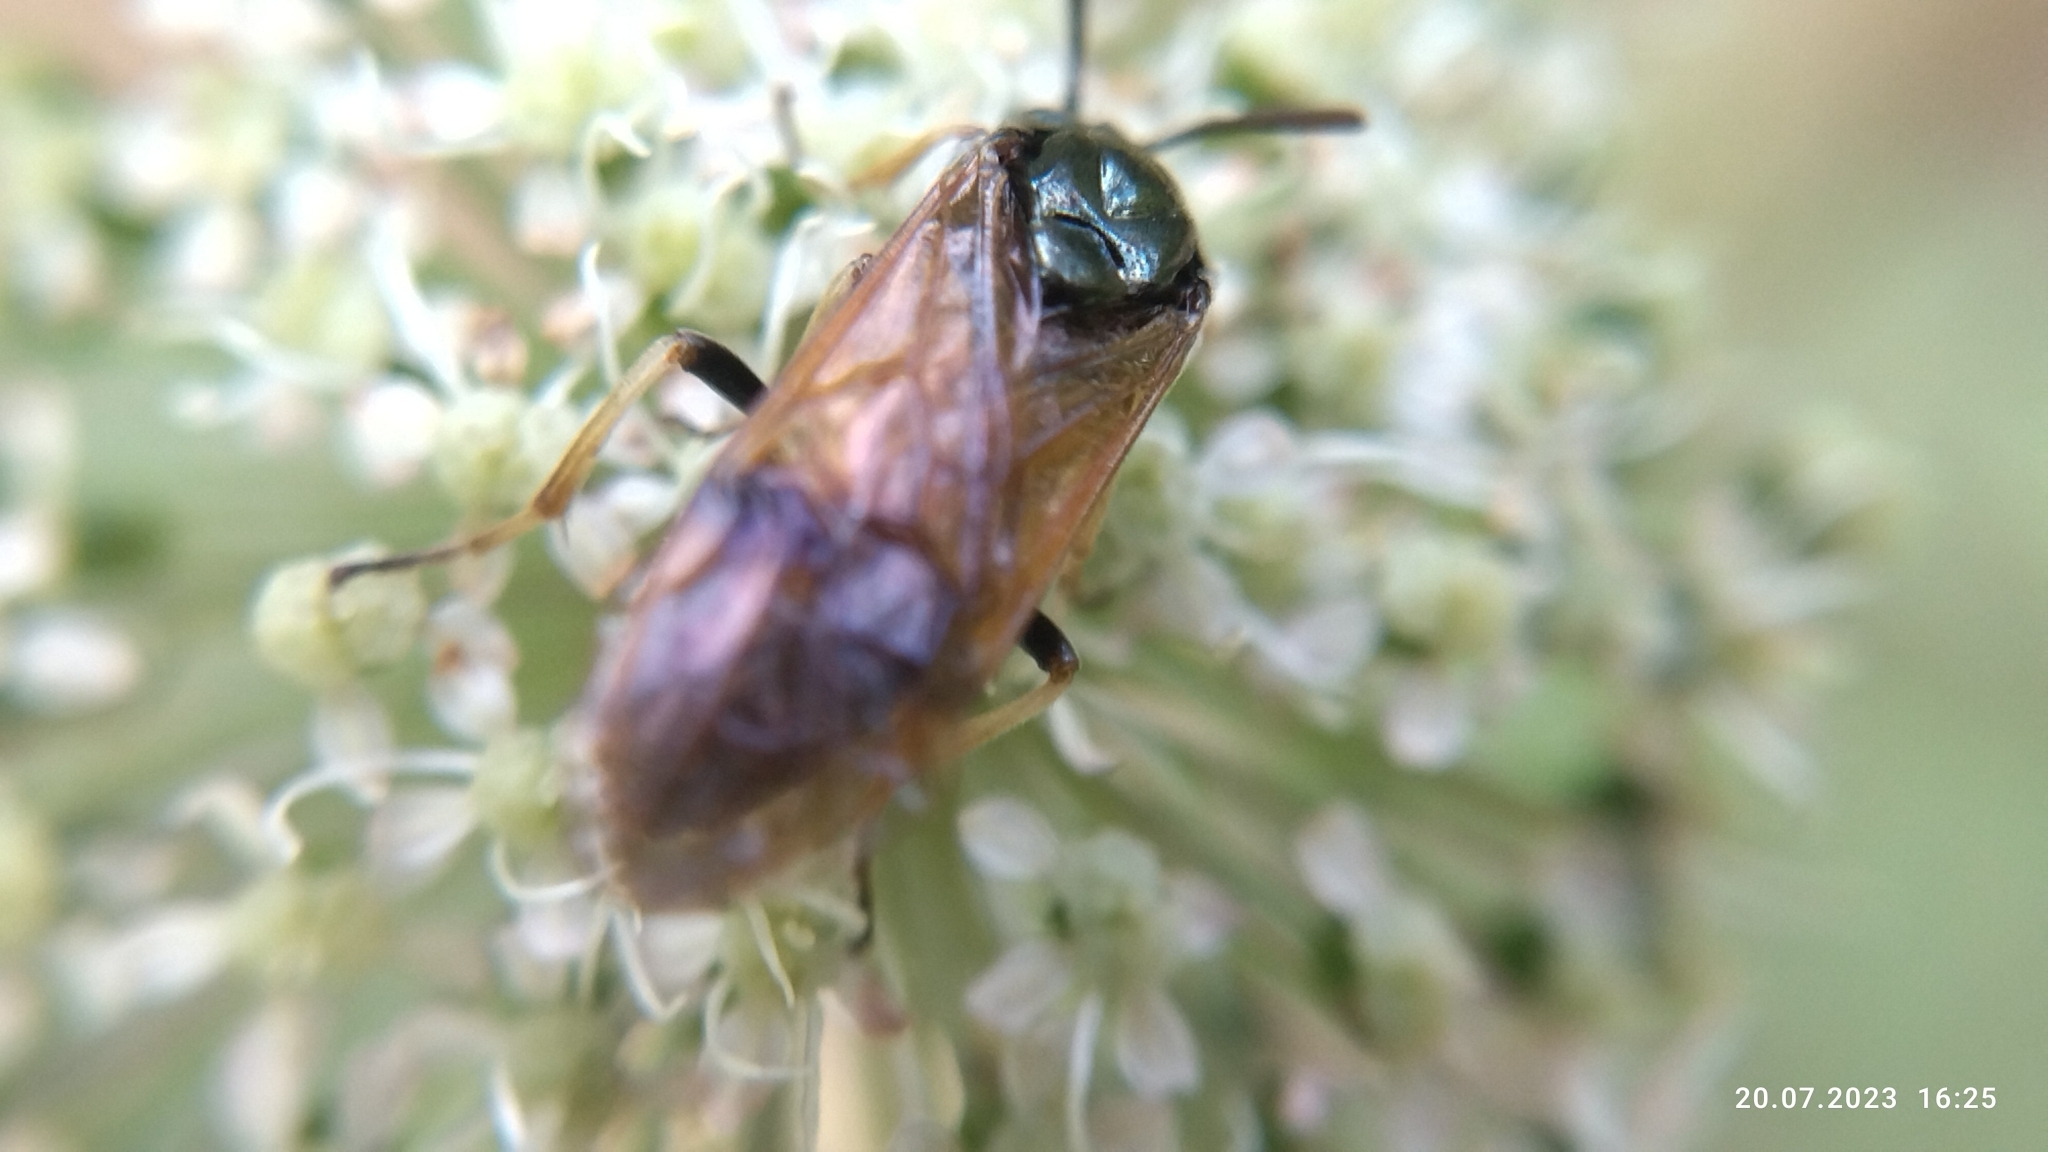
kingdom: Animalia
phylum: Arthropoda
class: Insecta
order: Hymenoptera
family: Argidae
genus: Arge
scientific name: Arge ustulata
